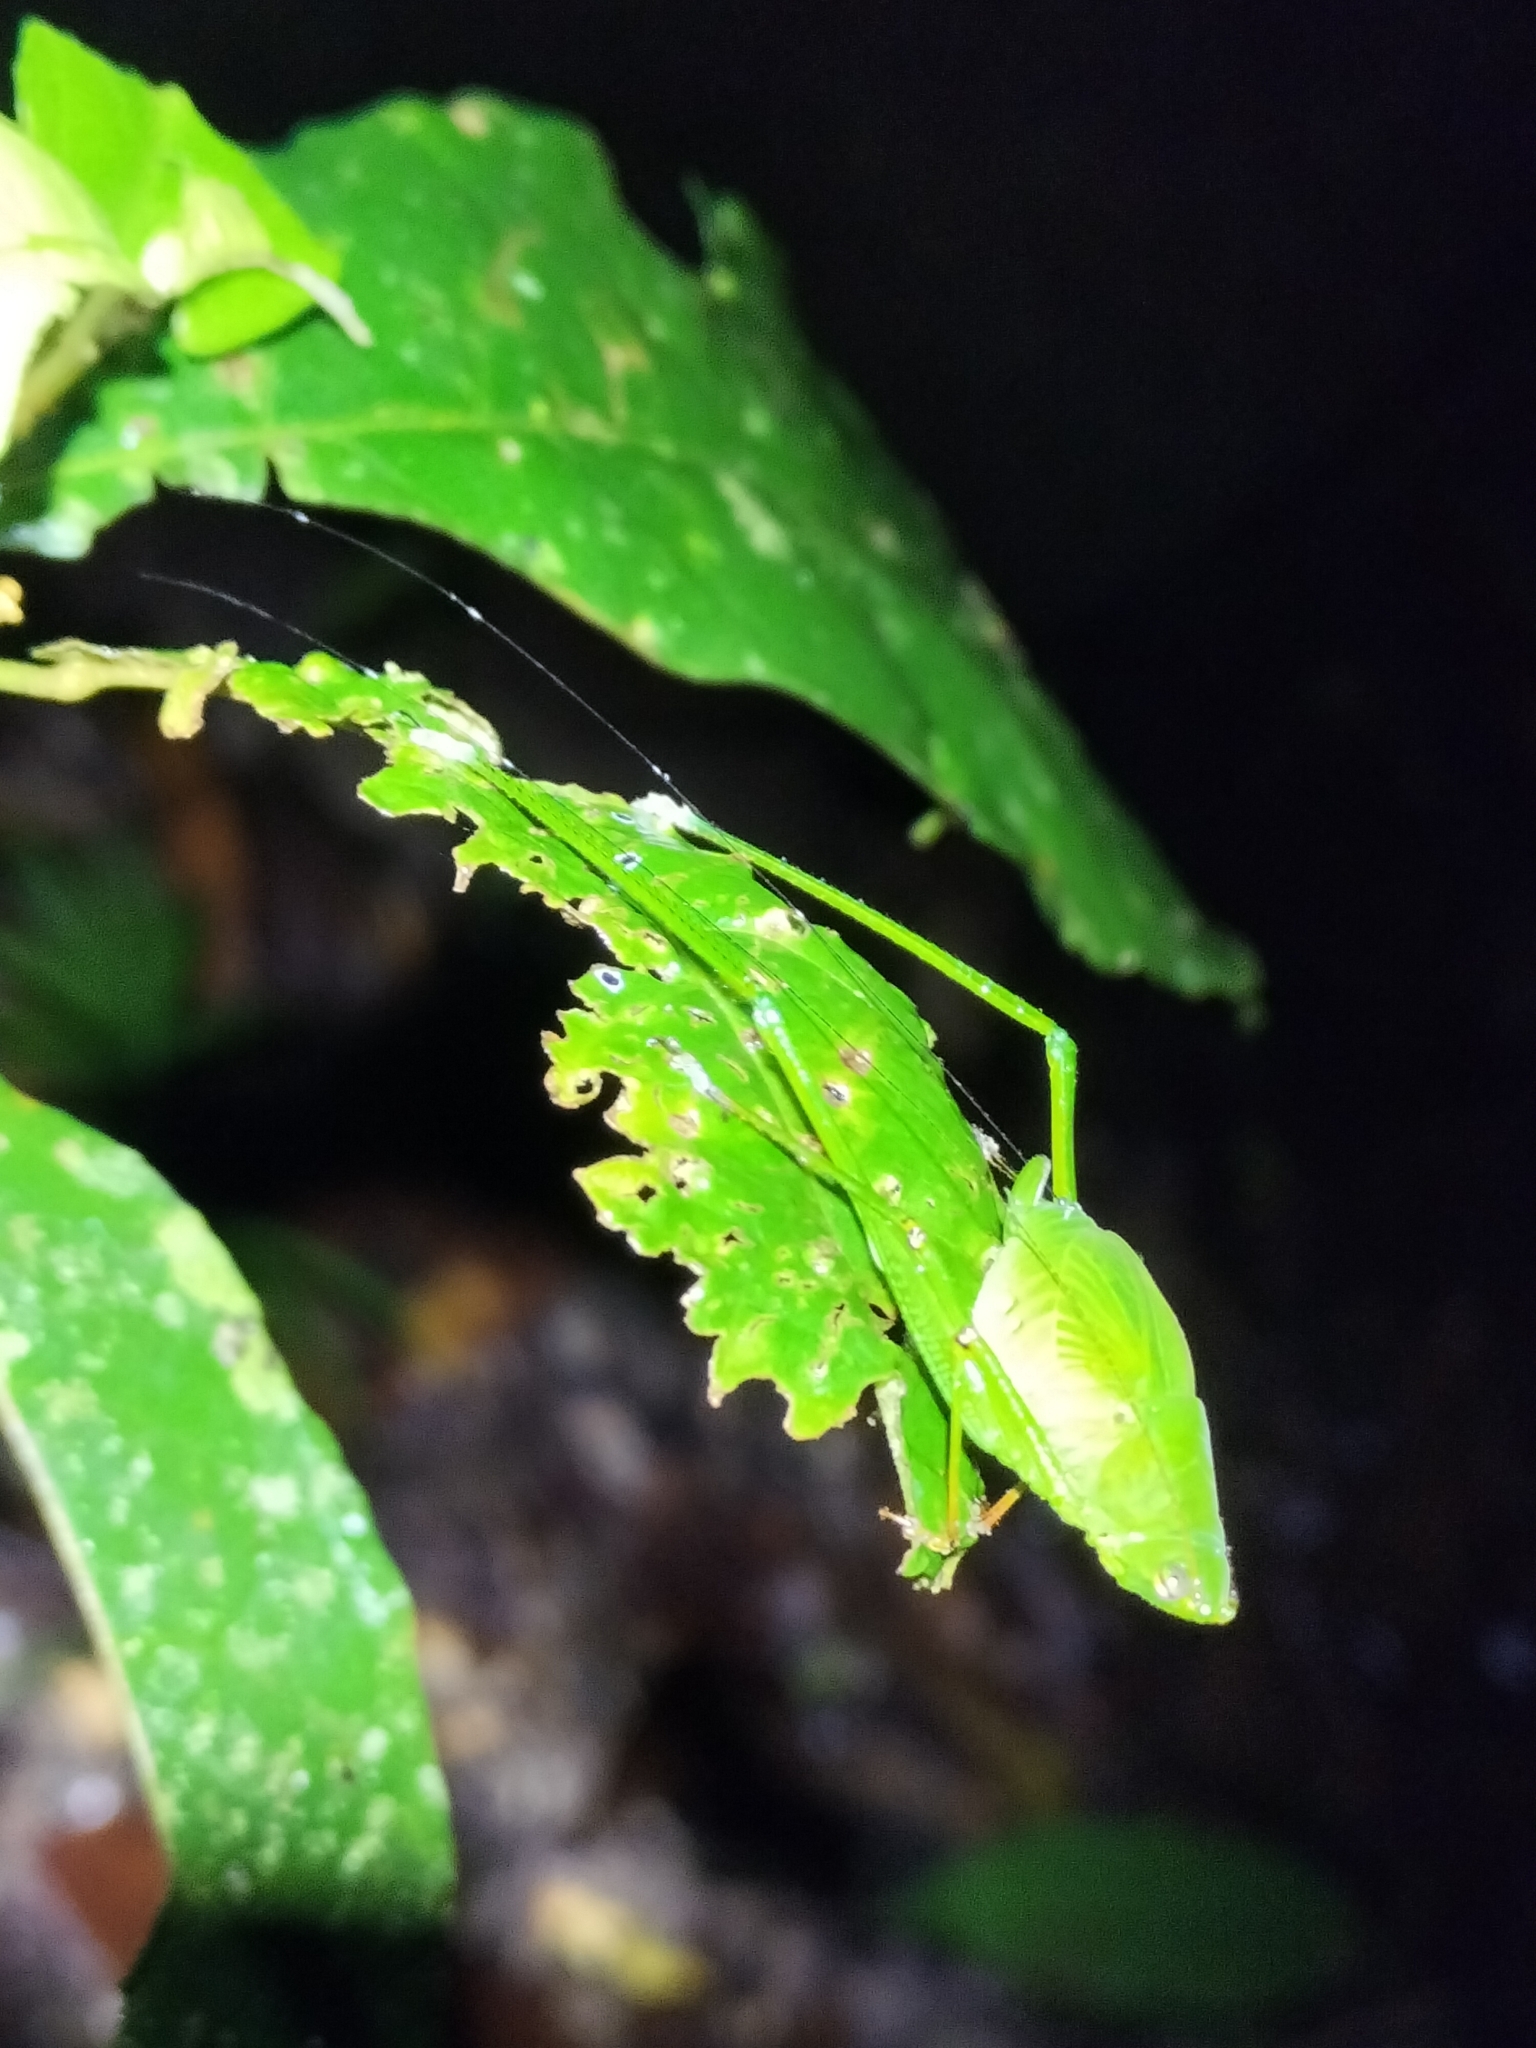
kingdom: Animalia
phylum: Arthropoda
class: Insecta
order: Orthoptera
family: Tettigoniidae
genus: Leucopodoptera
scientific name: Leucopodoptera eumundii
